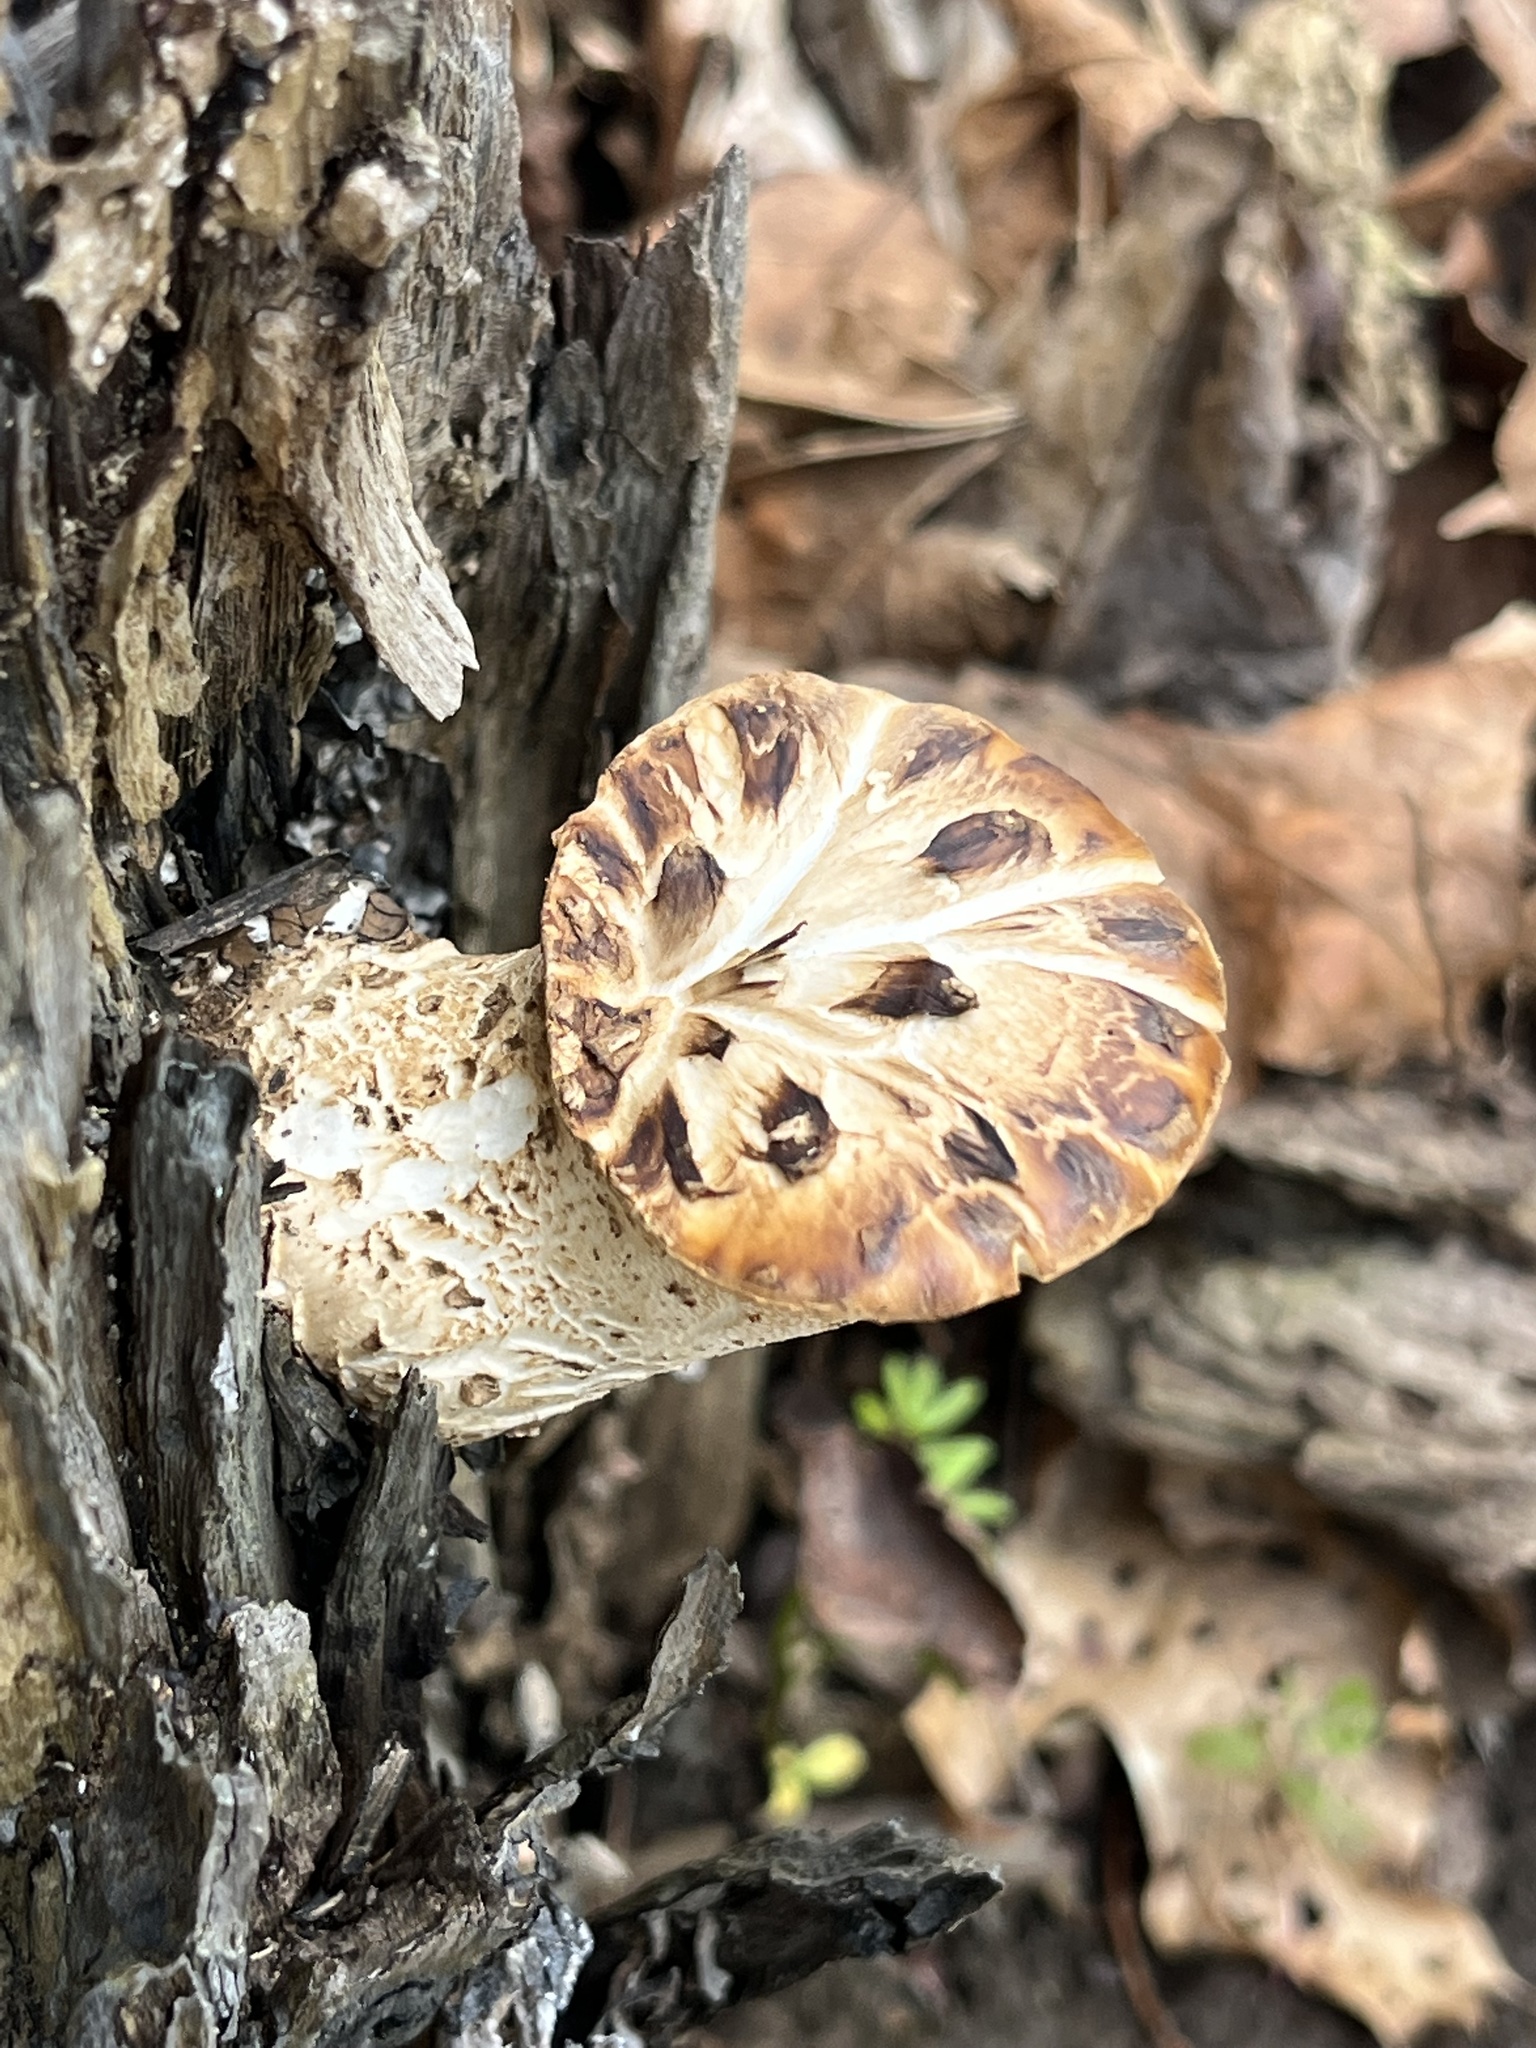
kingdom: Fungi
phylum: Basidiomycota
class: Agaricomycetes
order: Polyporales
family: Polyporaceae
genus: Cerioporus
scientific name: Cerioporus squamosus
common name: Dryad's saddle
